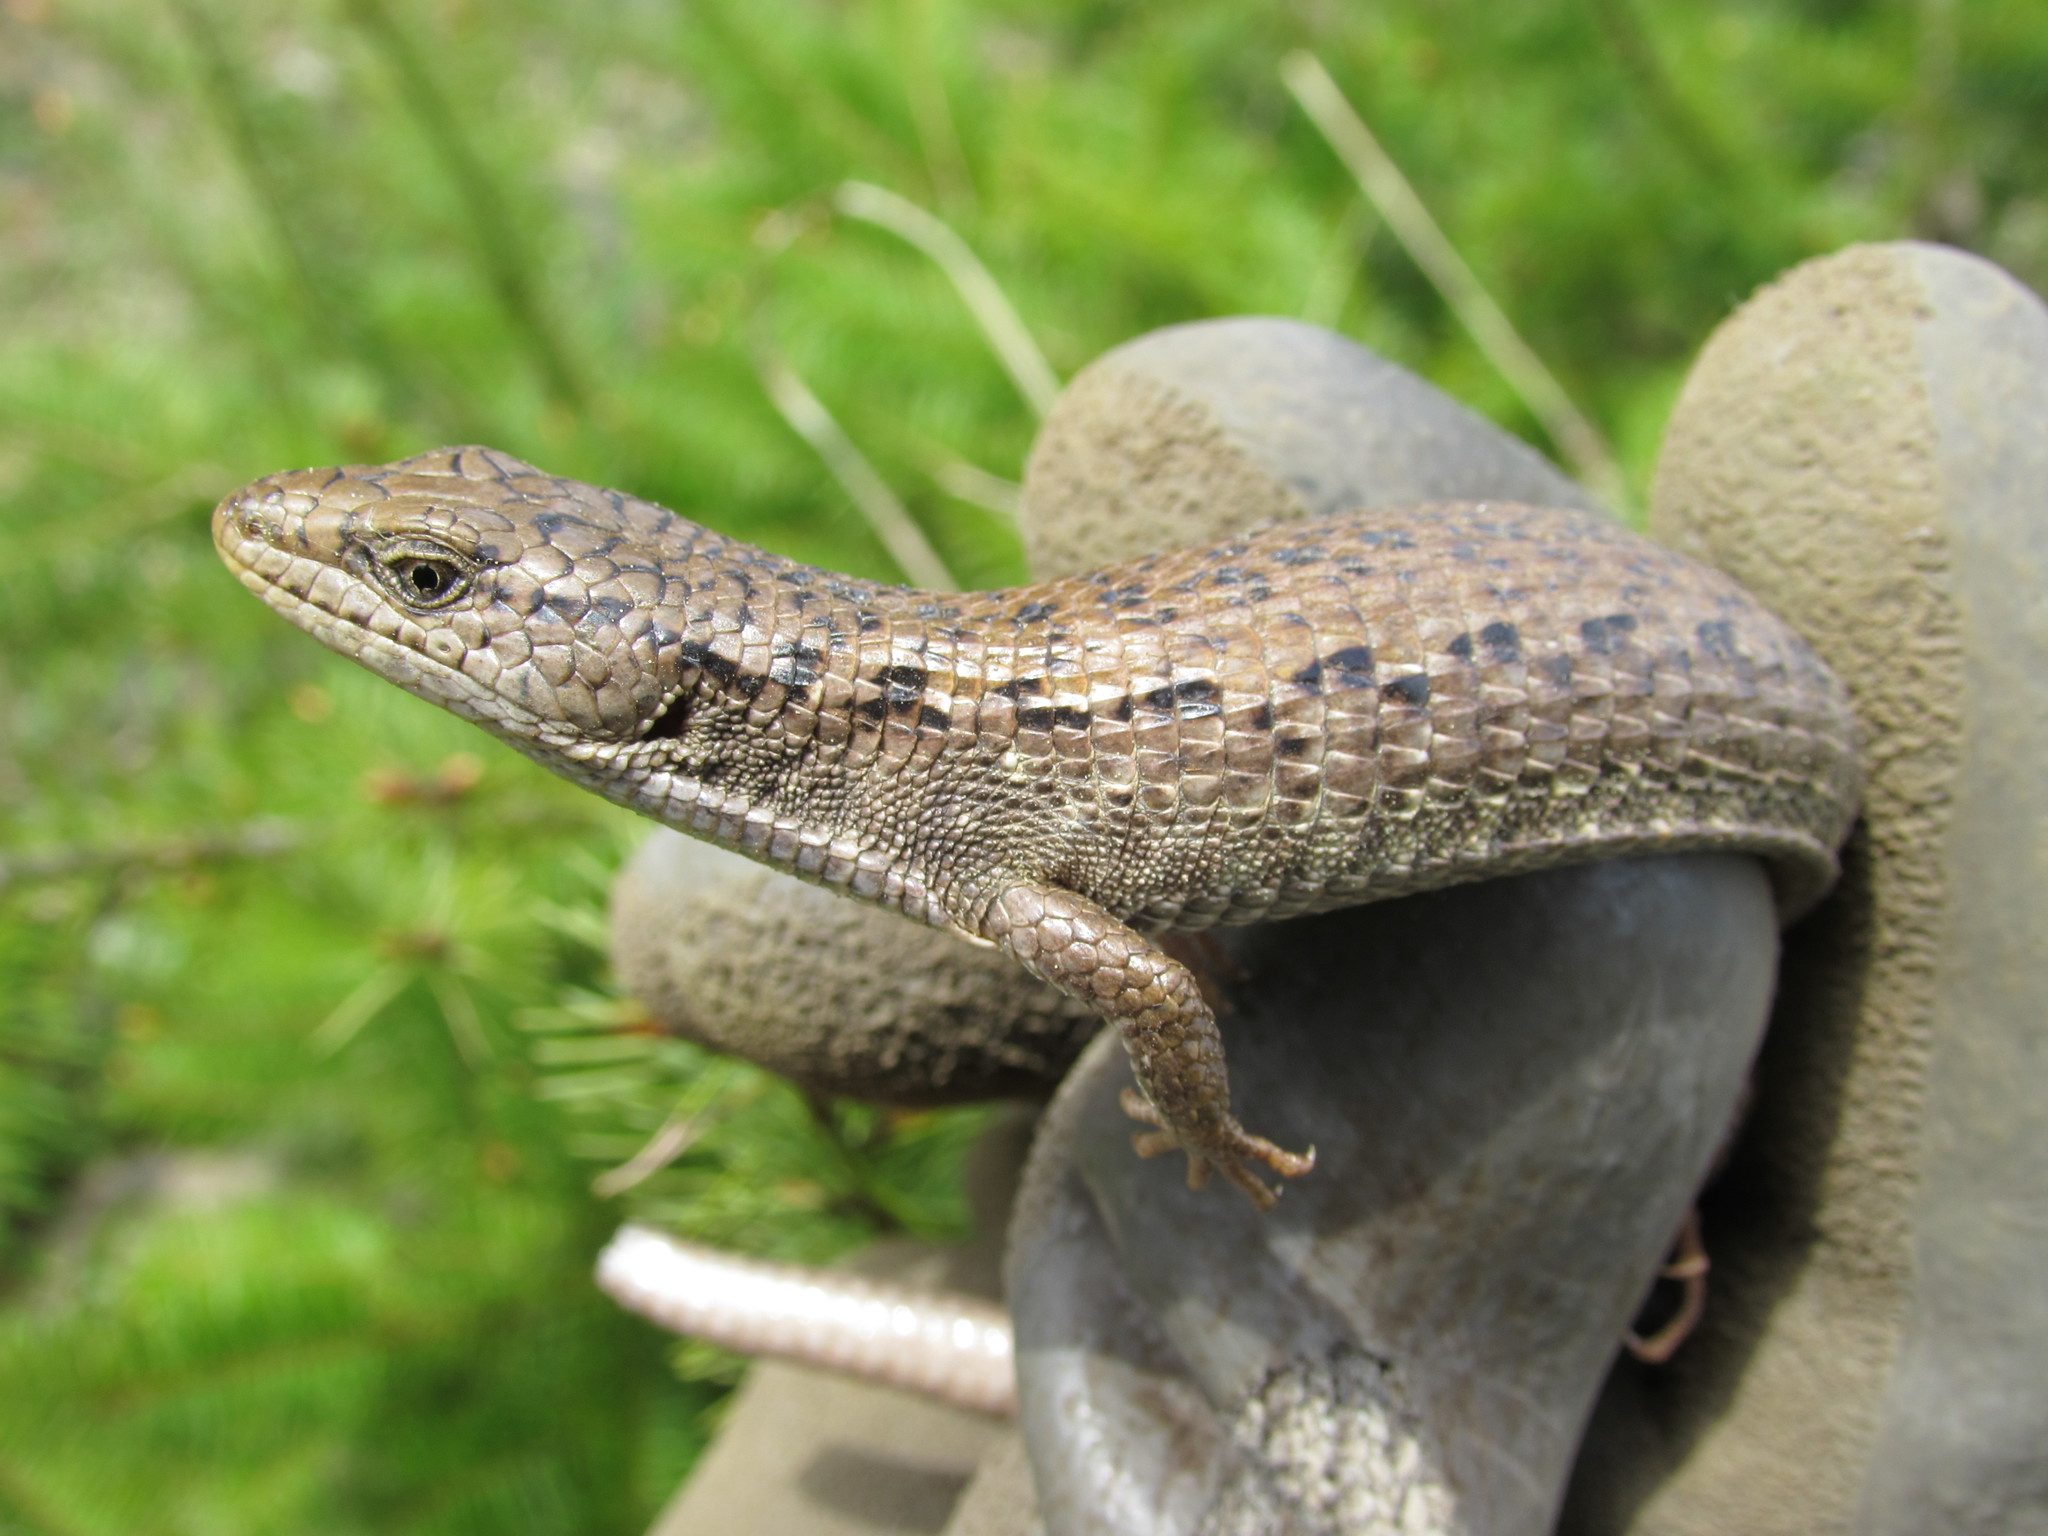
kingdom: Animalia
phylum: Chordata
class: Squamata
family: Anguidae
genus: Elgaria
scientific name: Elgaria coerulea
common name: Northern alligator lizard
